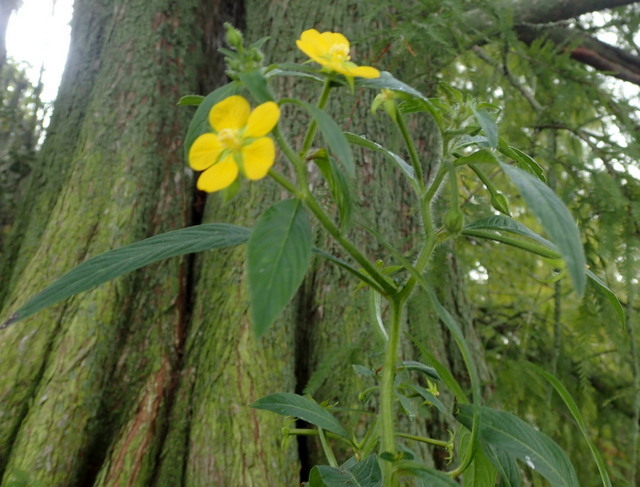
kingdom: Plantae
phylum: Tracheophyta
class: Magnoliopsida
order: Myrtales
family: Onagraceae
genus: Ludwigia
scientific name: Ludwigia leptocarpa
